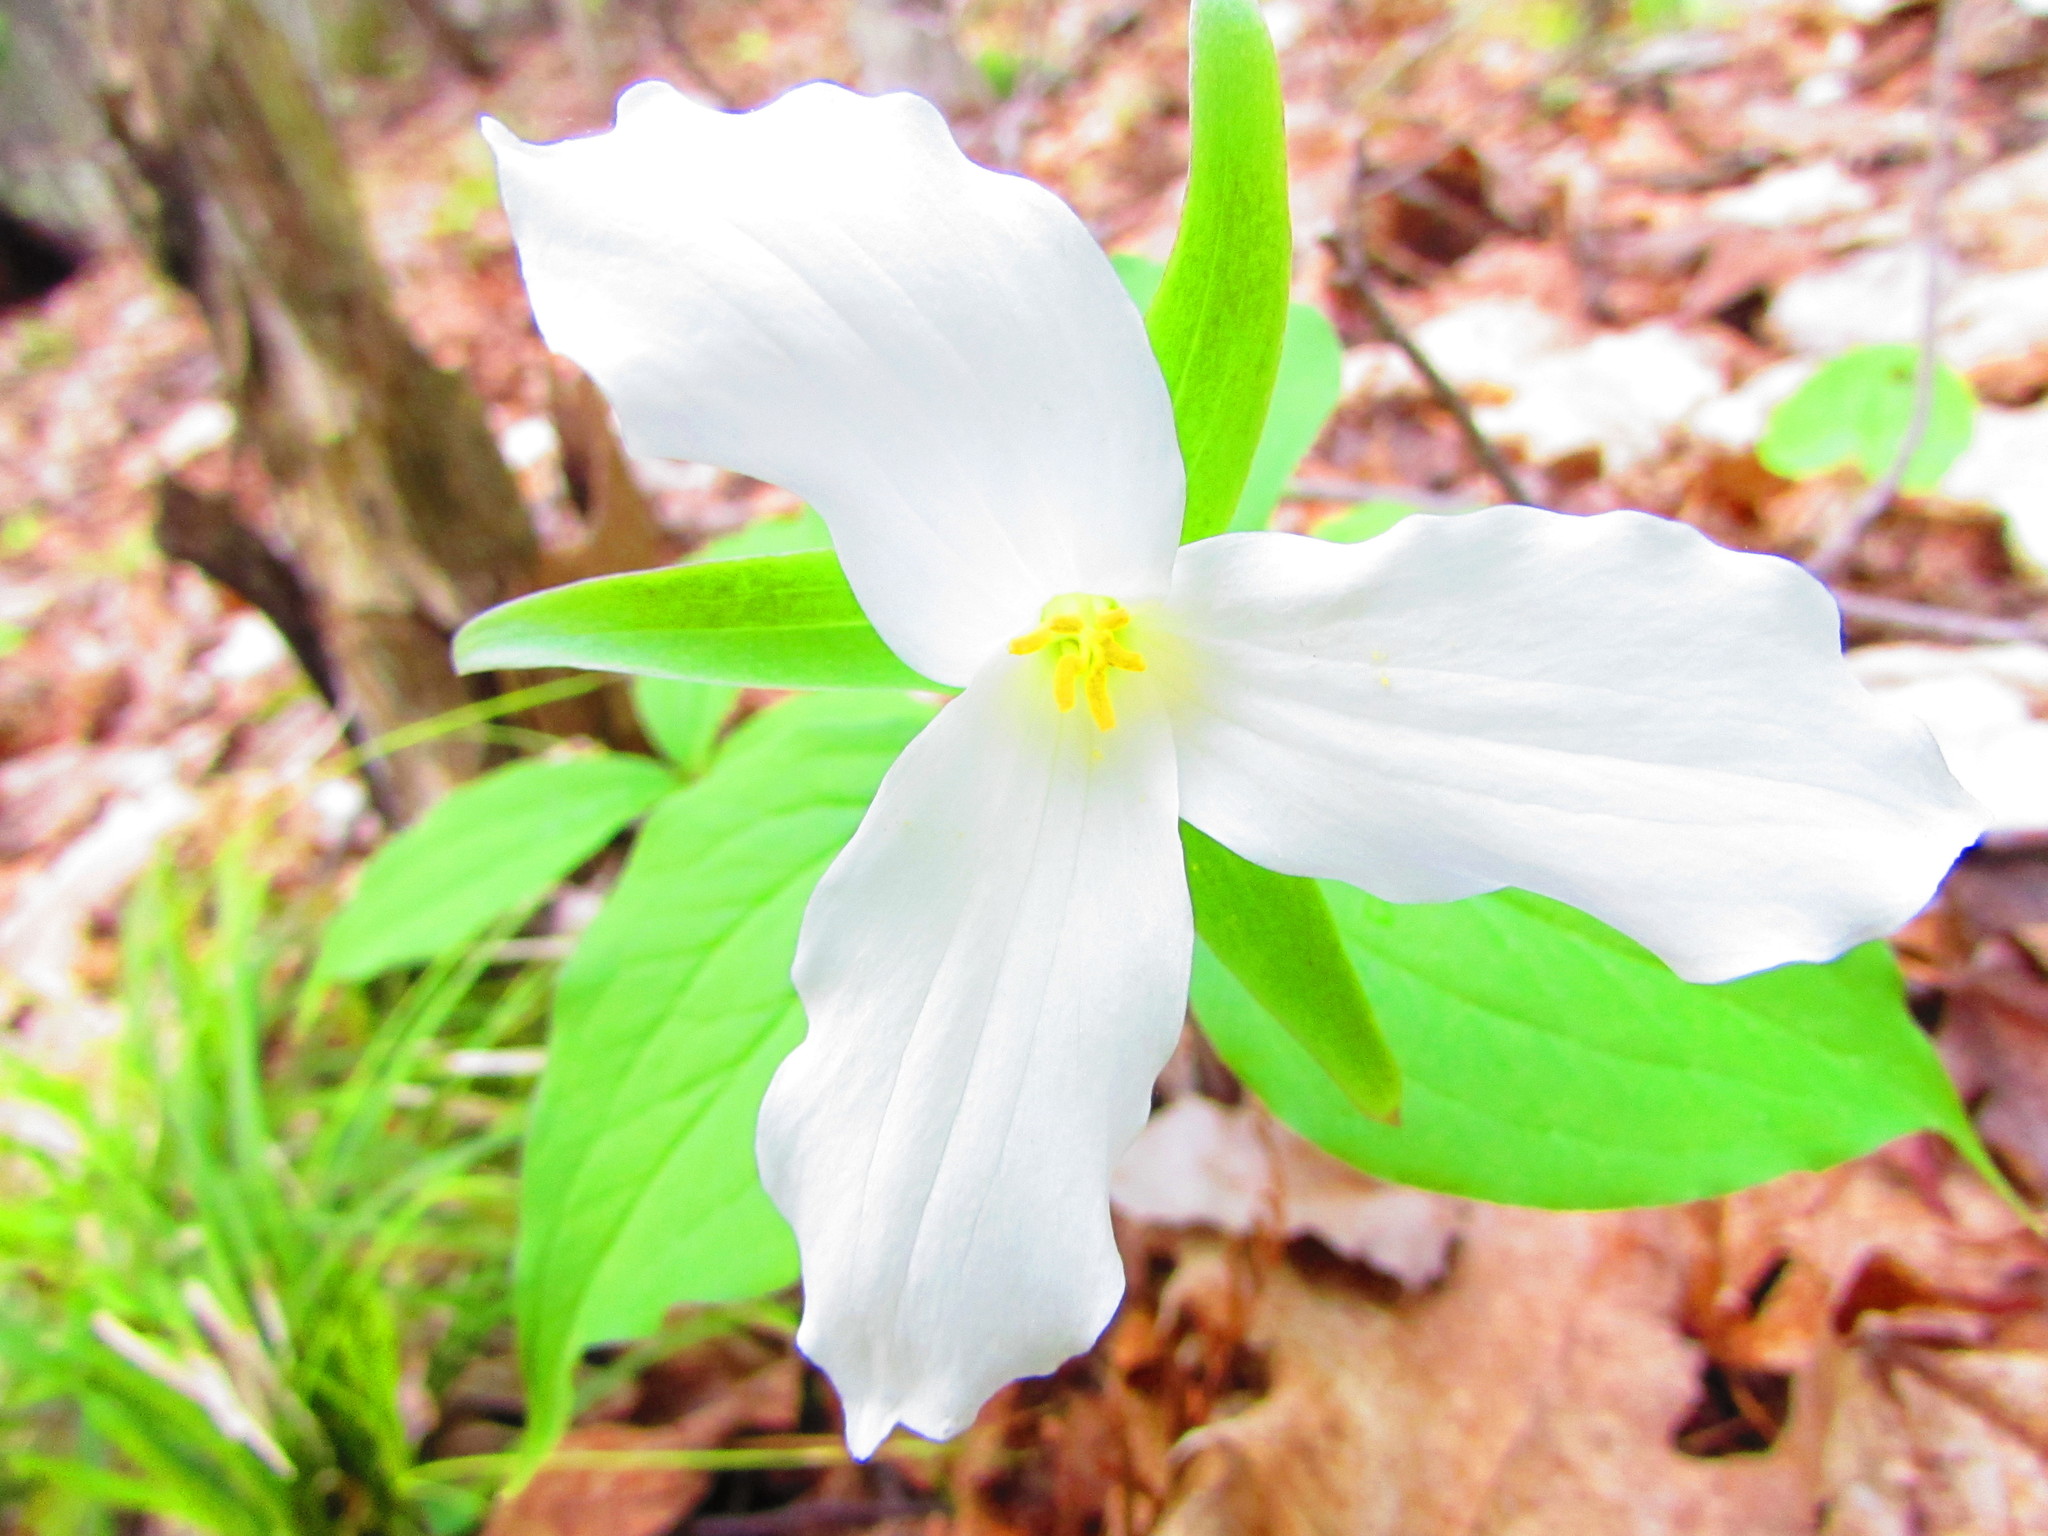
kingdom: Plantae
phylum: Tracheophyta
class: Liliopsida
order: Liliales
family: Melanthiaceae
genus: Trillium
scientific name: Trillium grandiflorum
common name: Great white trillium
